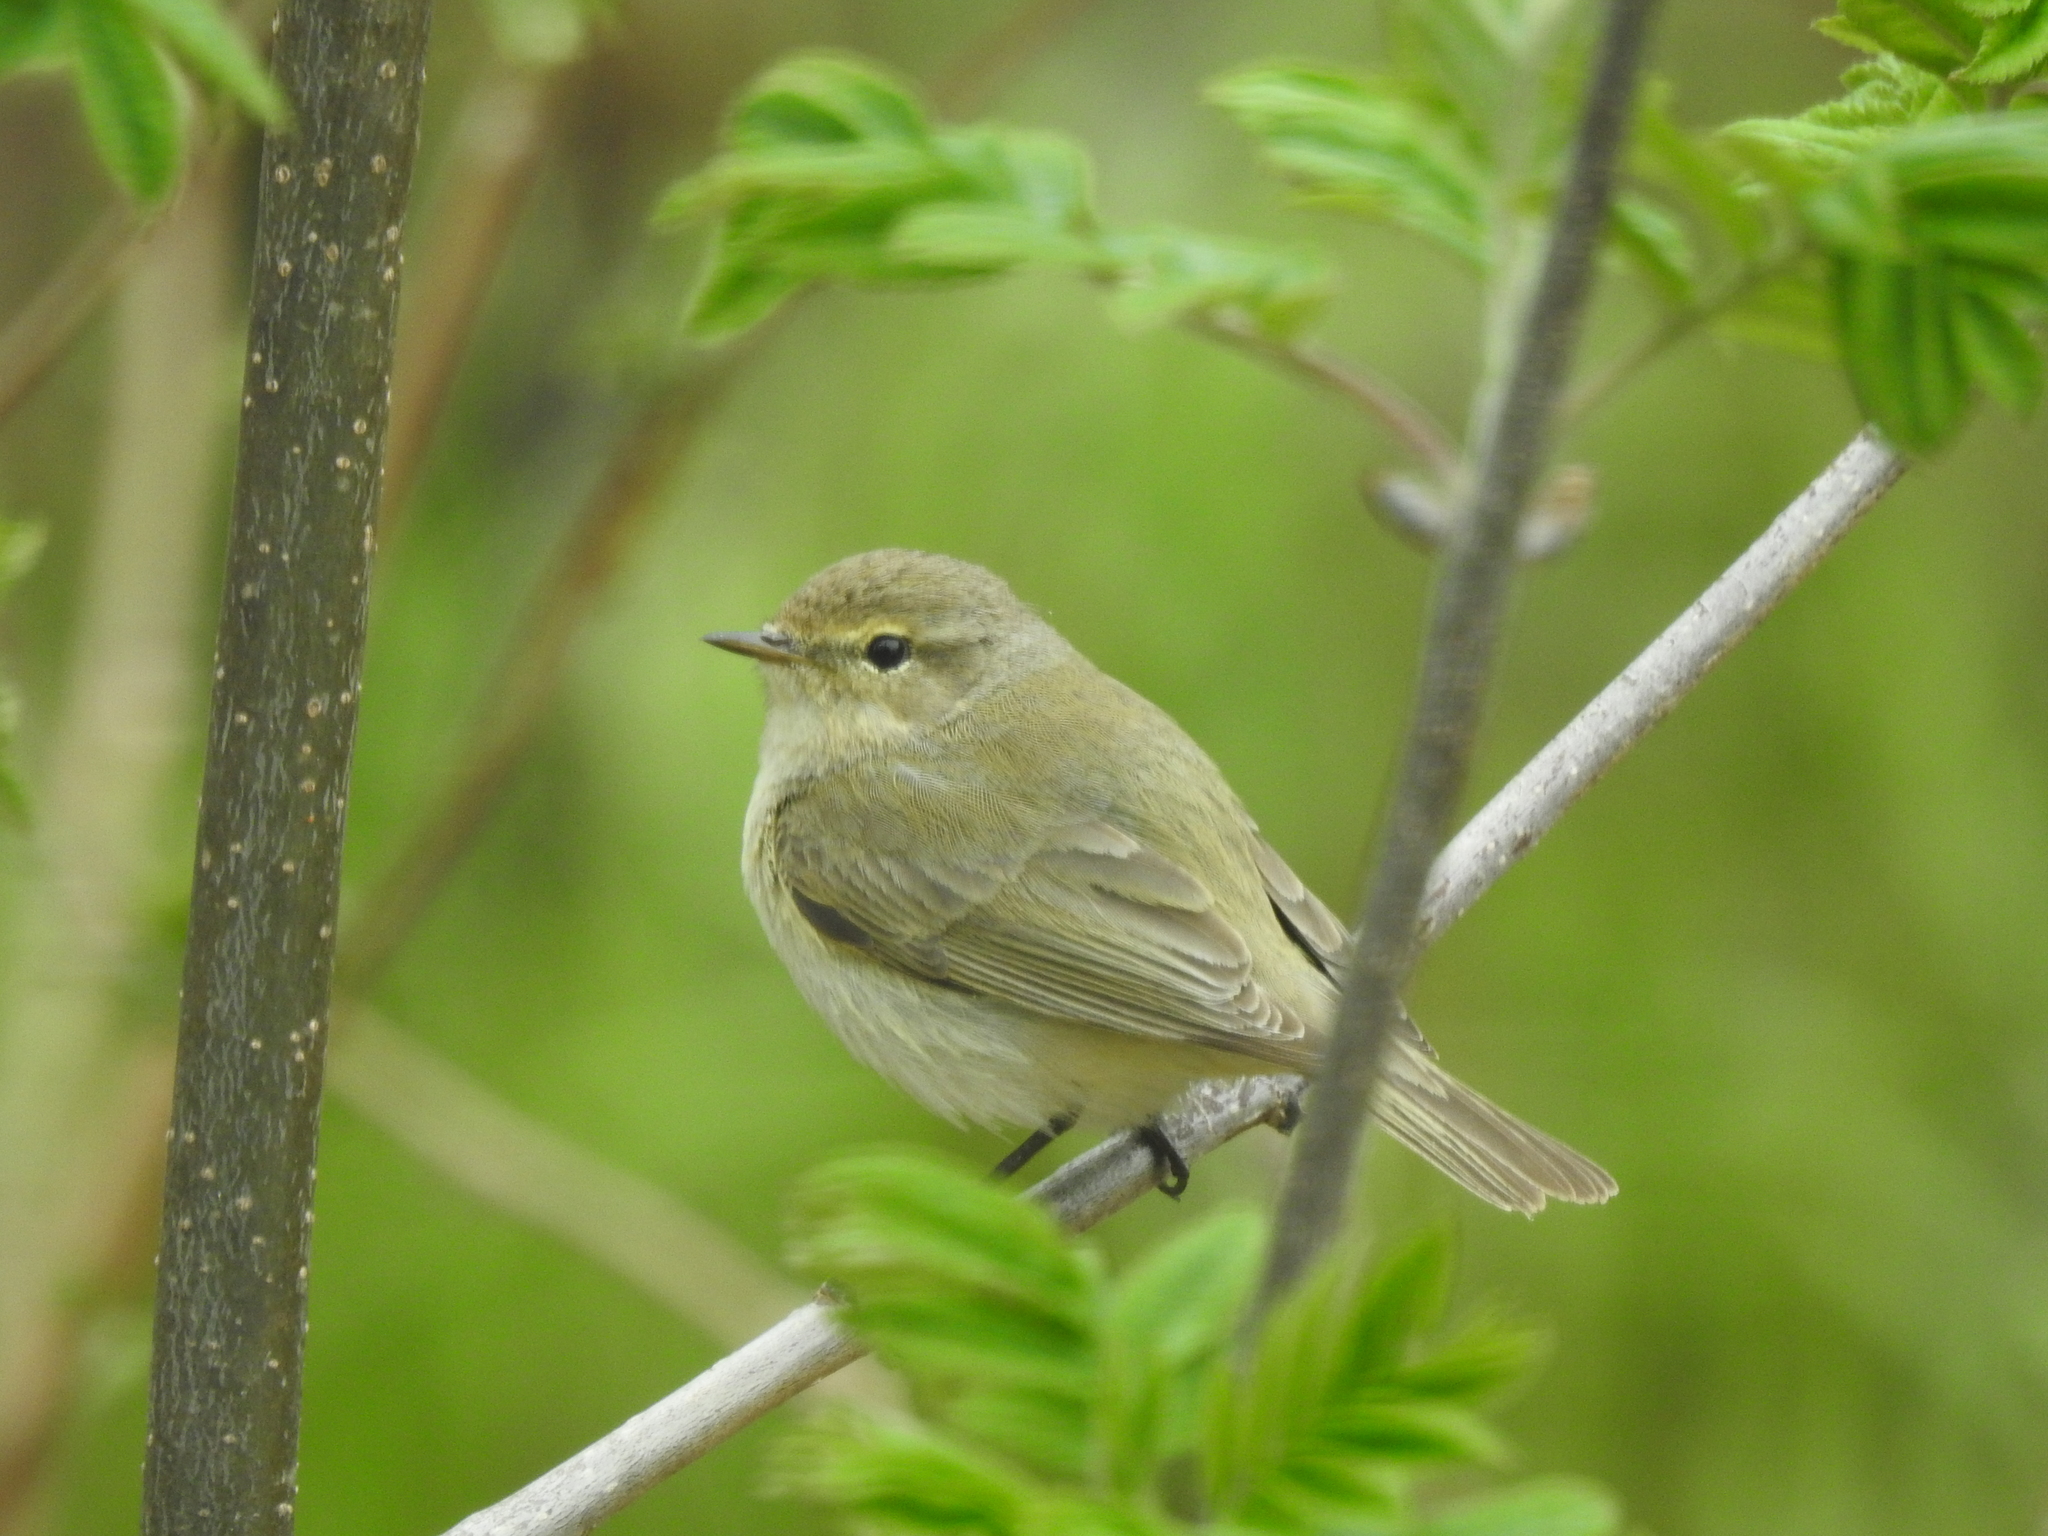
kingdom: Animalia
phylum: Chordata
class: Aves
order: Passeriformes
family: Phylloscopidae
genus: Phylloscopus
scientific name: Phylloscopus collybita
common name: Common chiffchaff
